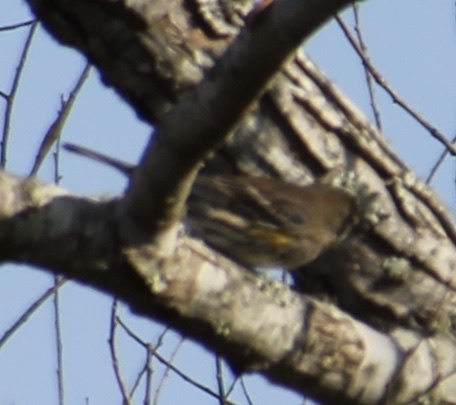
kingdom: Animalia
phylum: Chordata
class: Aves
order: Passeriformes
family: Parulidae
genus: Setophaga
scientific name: Setophaga coronata
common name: Myrtle warbler
